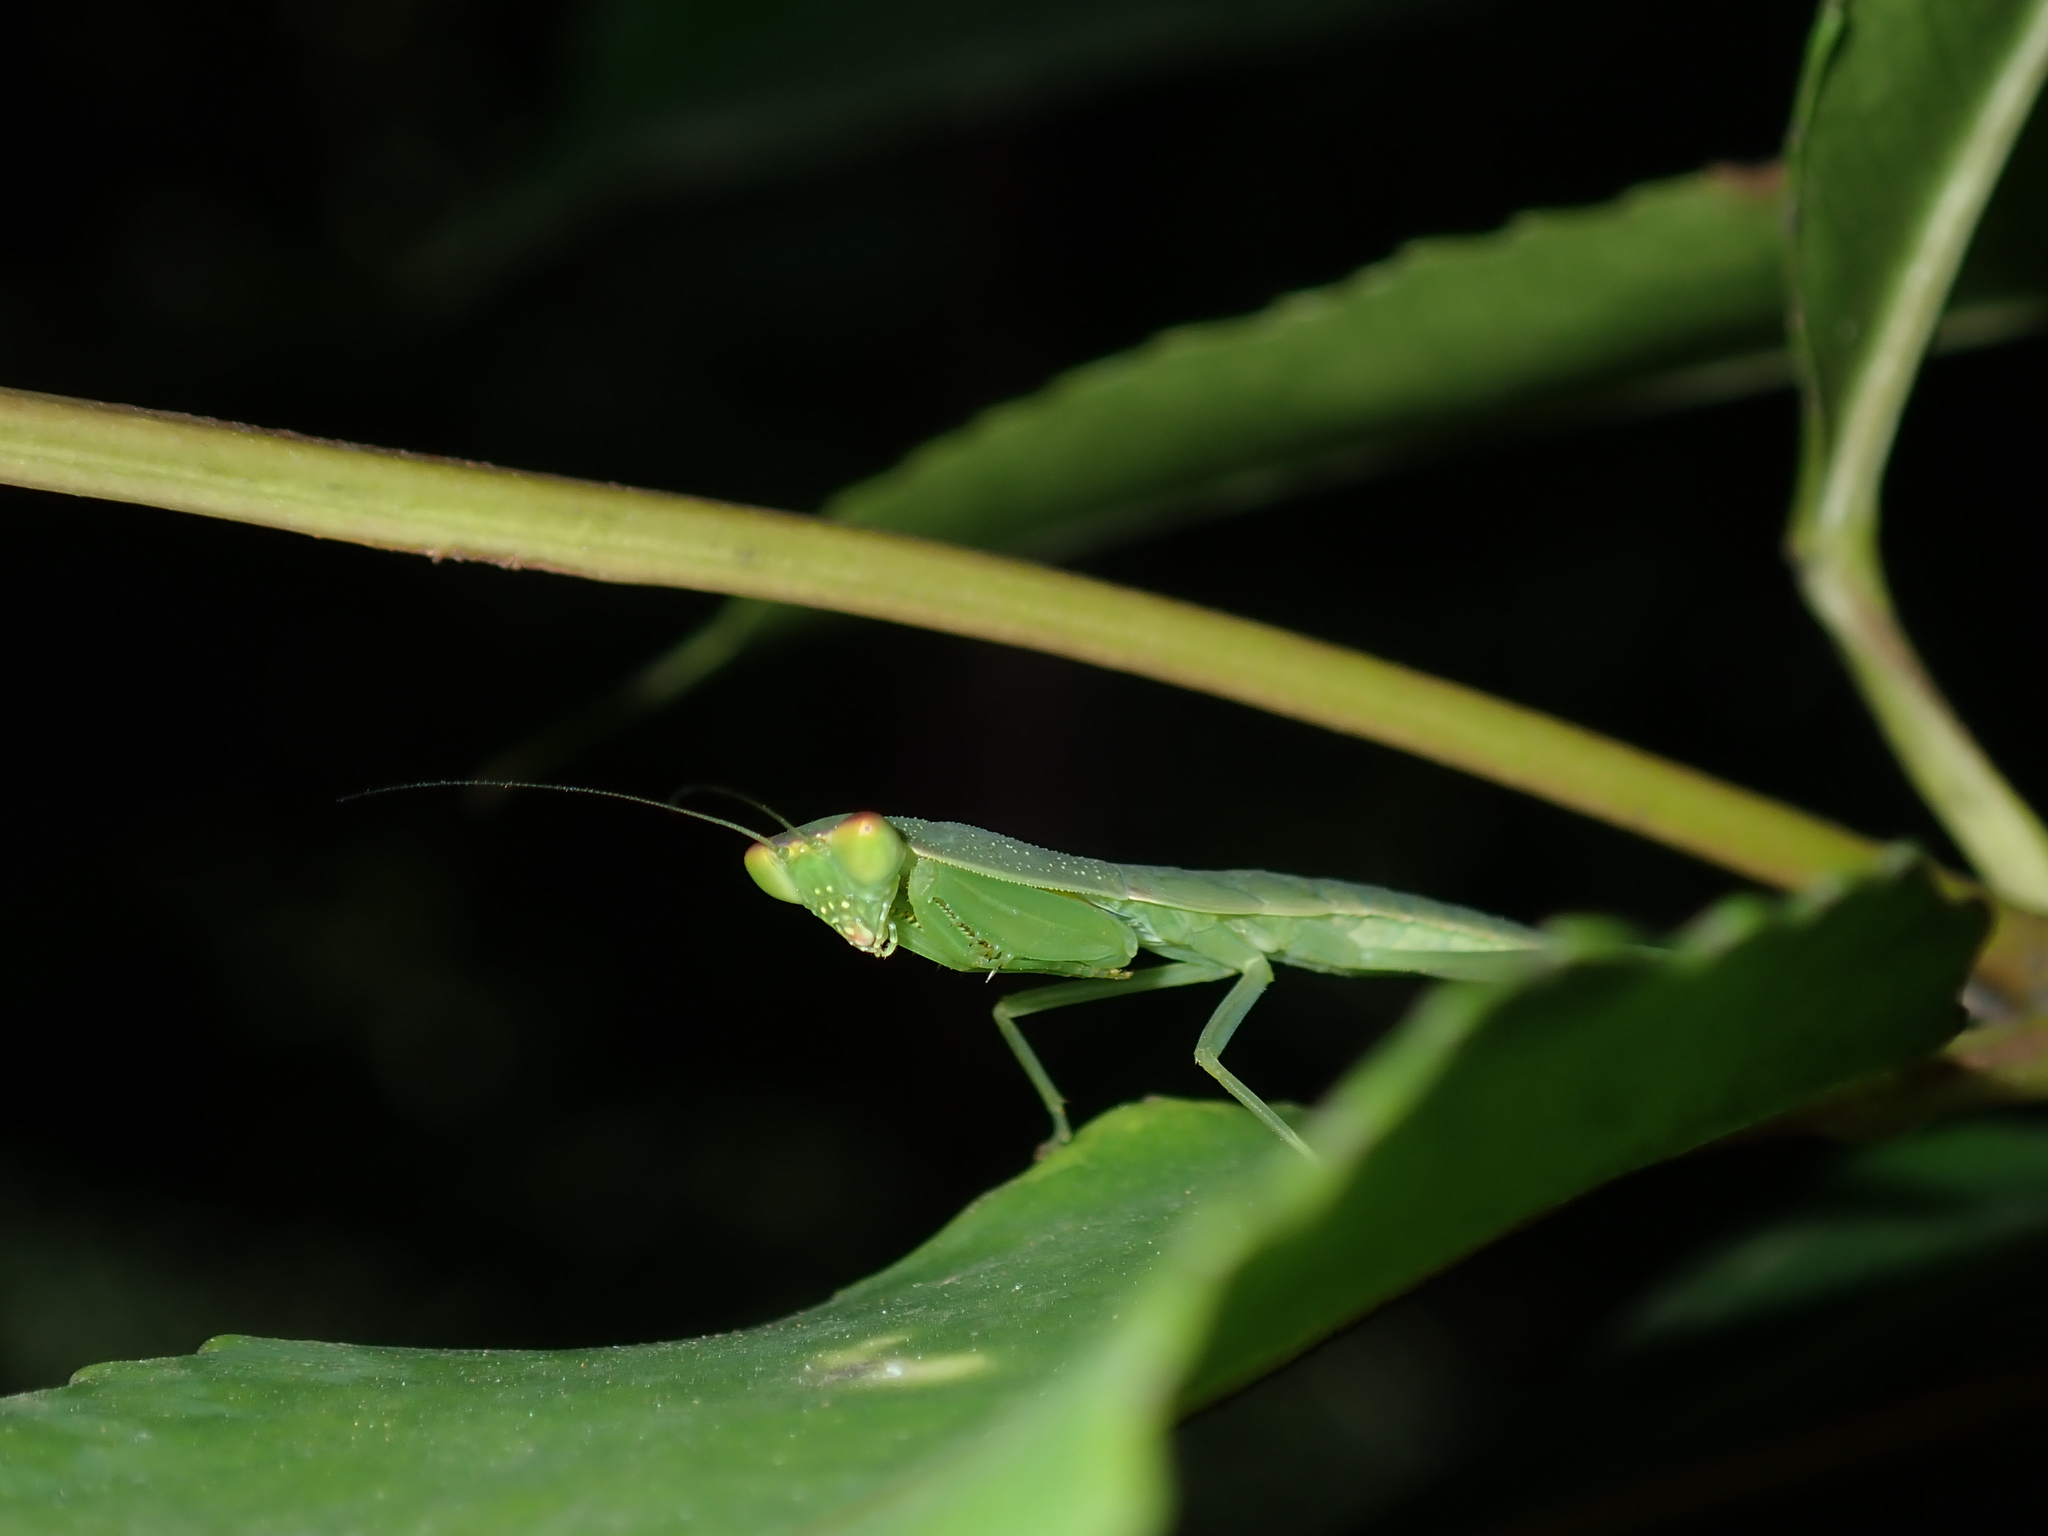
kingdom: Animalia
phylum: Arthropoda
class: Insecta
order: Mantodea
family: Mantidae
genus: Orthodera
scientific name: Orthodera ministralis
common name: Mantis
